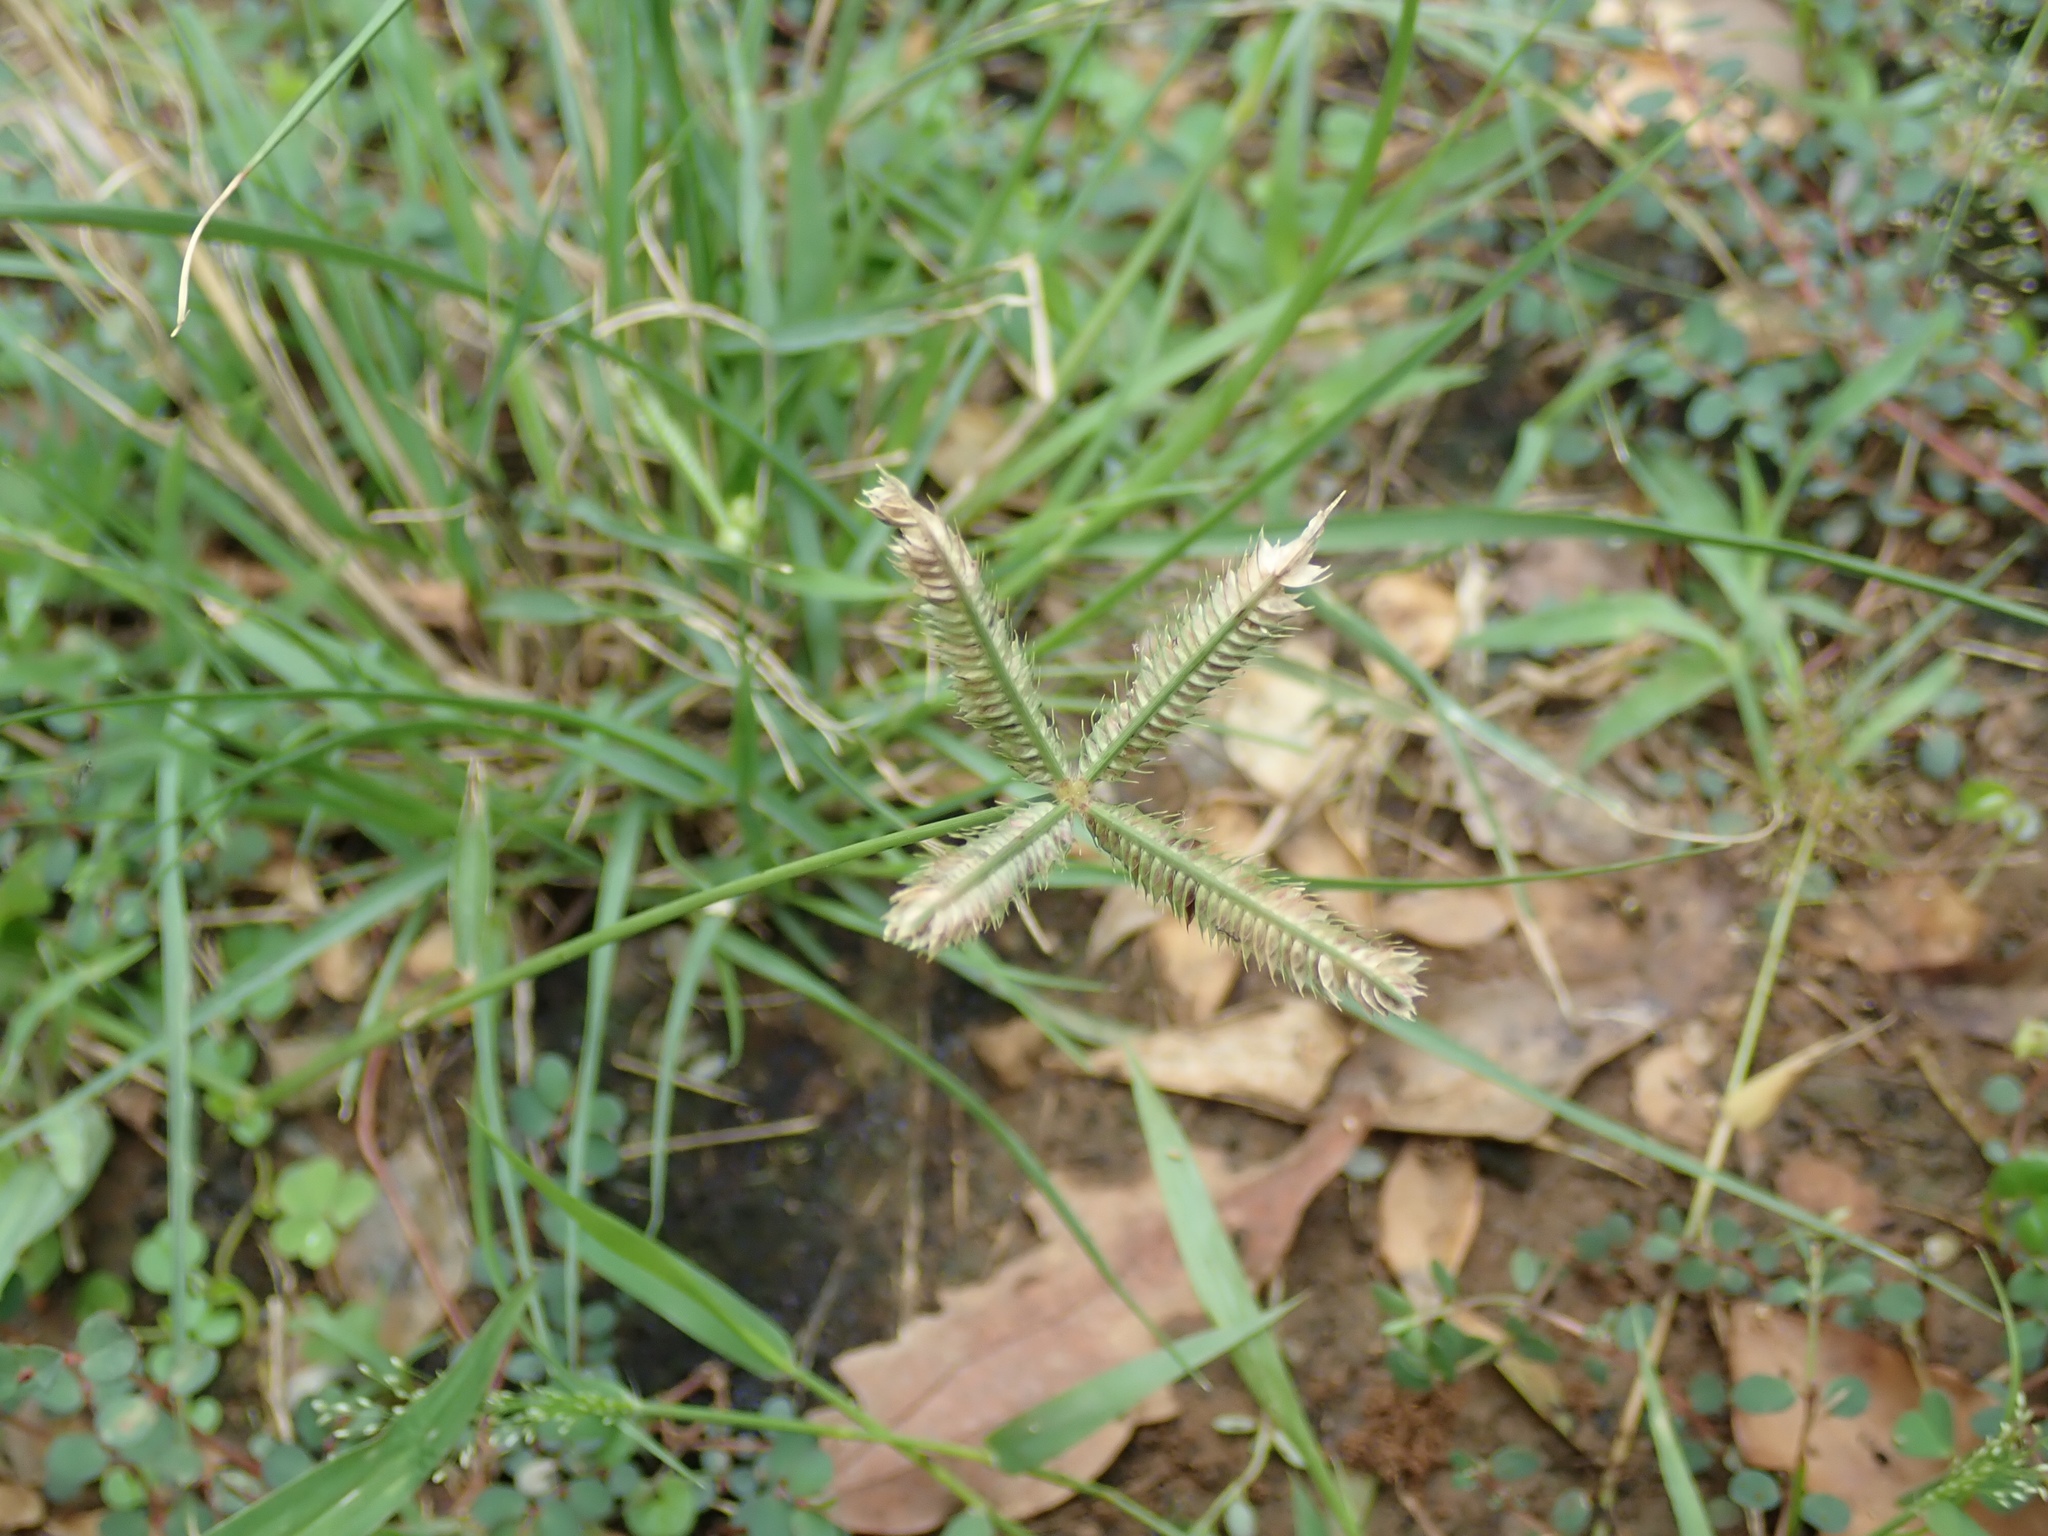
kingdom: Plantae
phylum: Tracheophyta
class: Liliopsida
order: Poales
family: Poaceae
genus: Dactyloctenium
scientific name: Dactyloctenium aegyptium
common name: Egyptian grass
